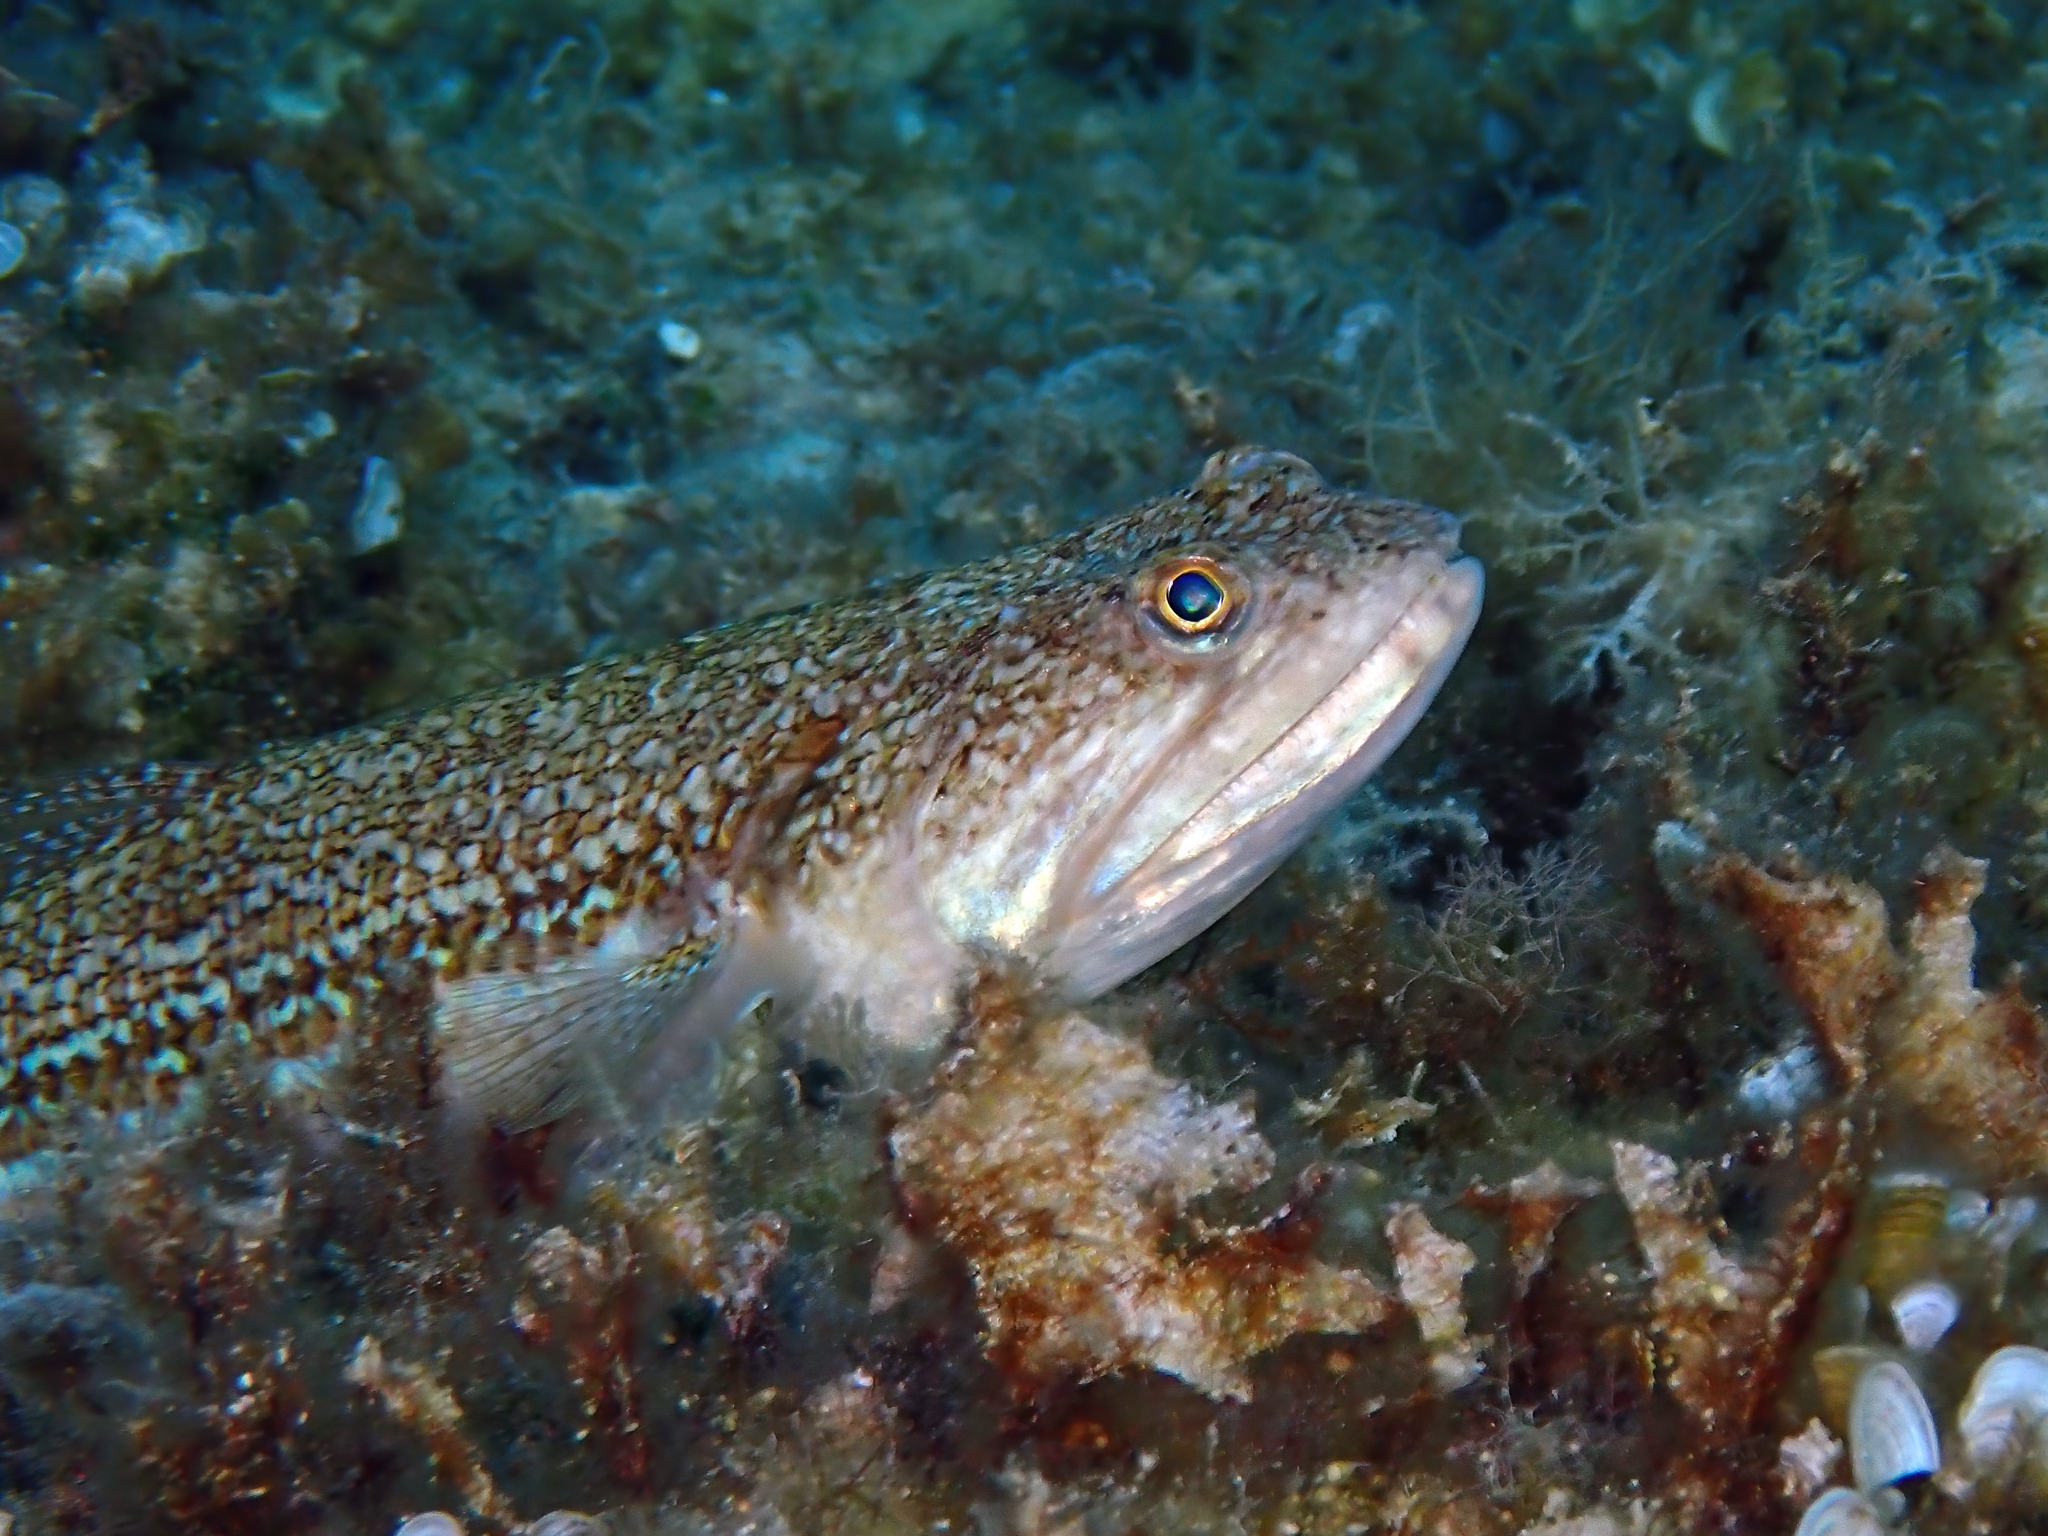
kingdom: Animalia
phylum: Chordata
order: Aulopiformes
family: Synodontidae
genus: Synodus
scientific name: Synodus saurus
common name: Atlantic lizardfish
